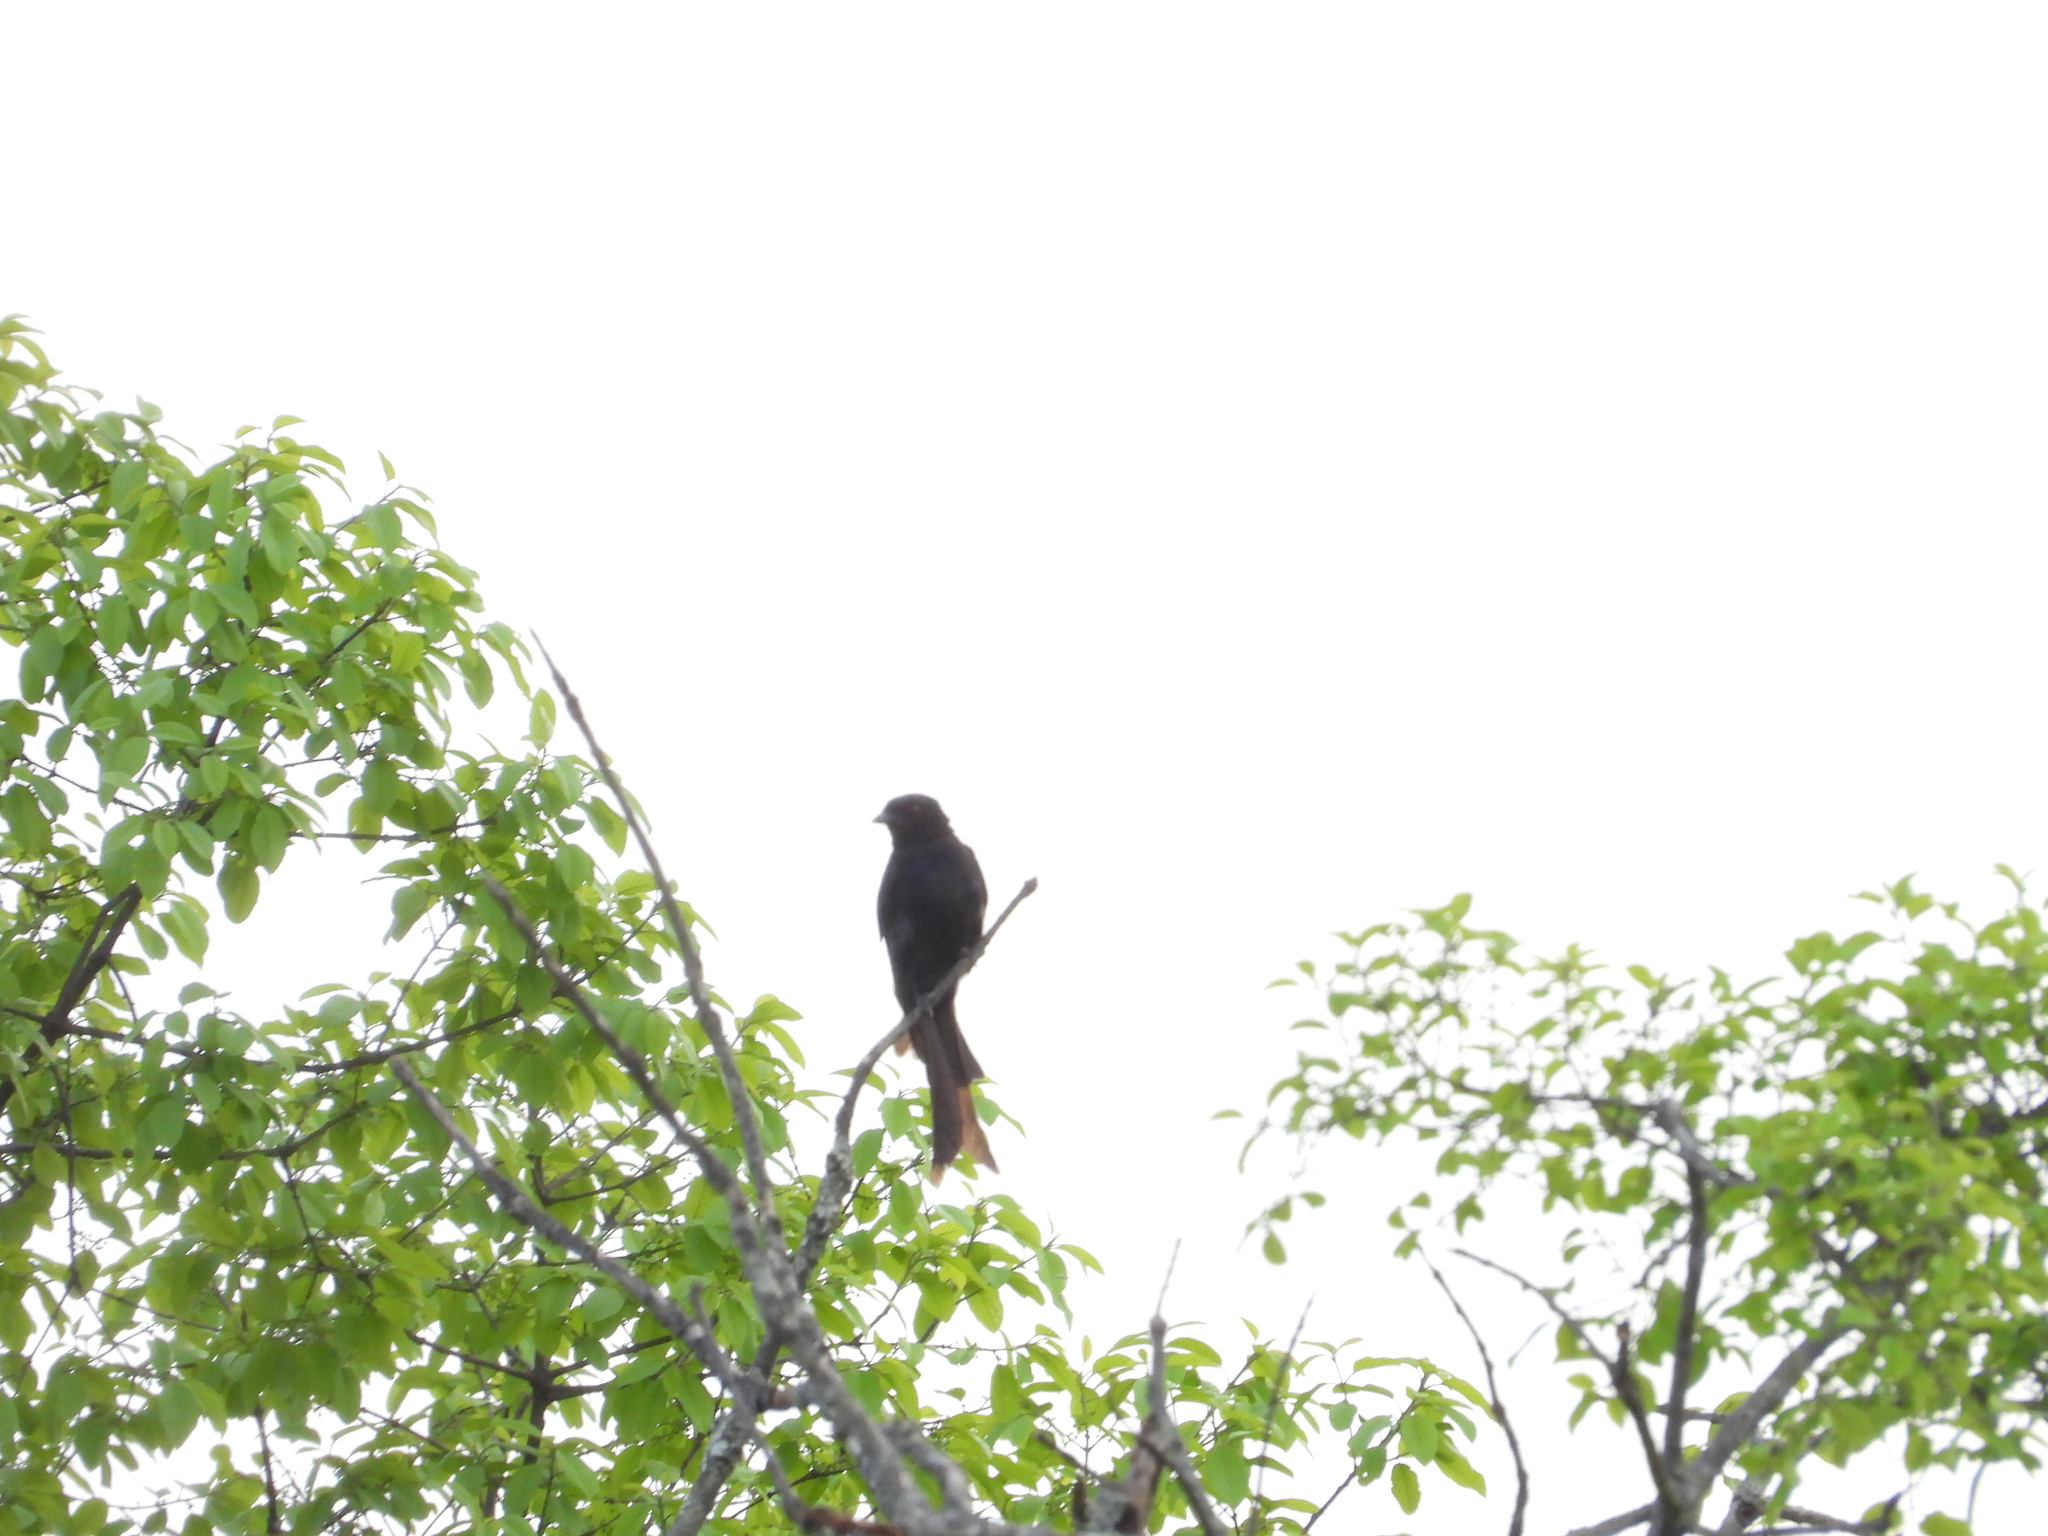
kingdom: Animalia
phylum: Chordata
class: Aves
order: Passeriformes
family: Dicruridae
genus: Dicrurus
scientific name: Dicrurus adsimilis
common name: Fork-tailed drongo
